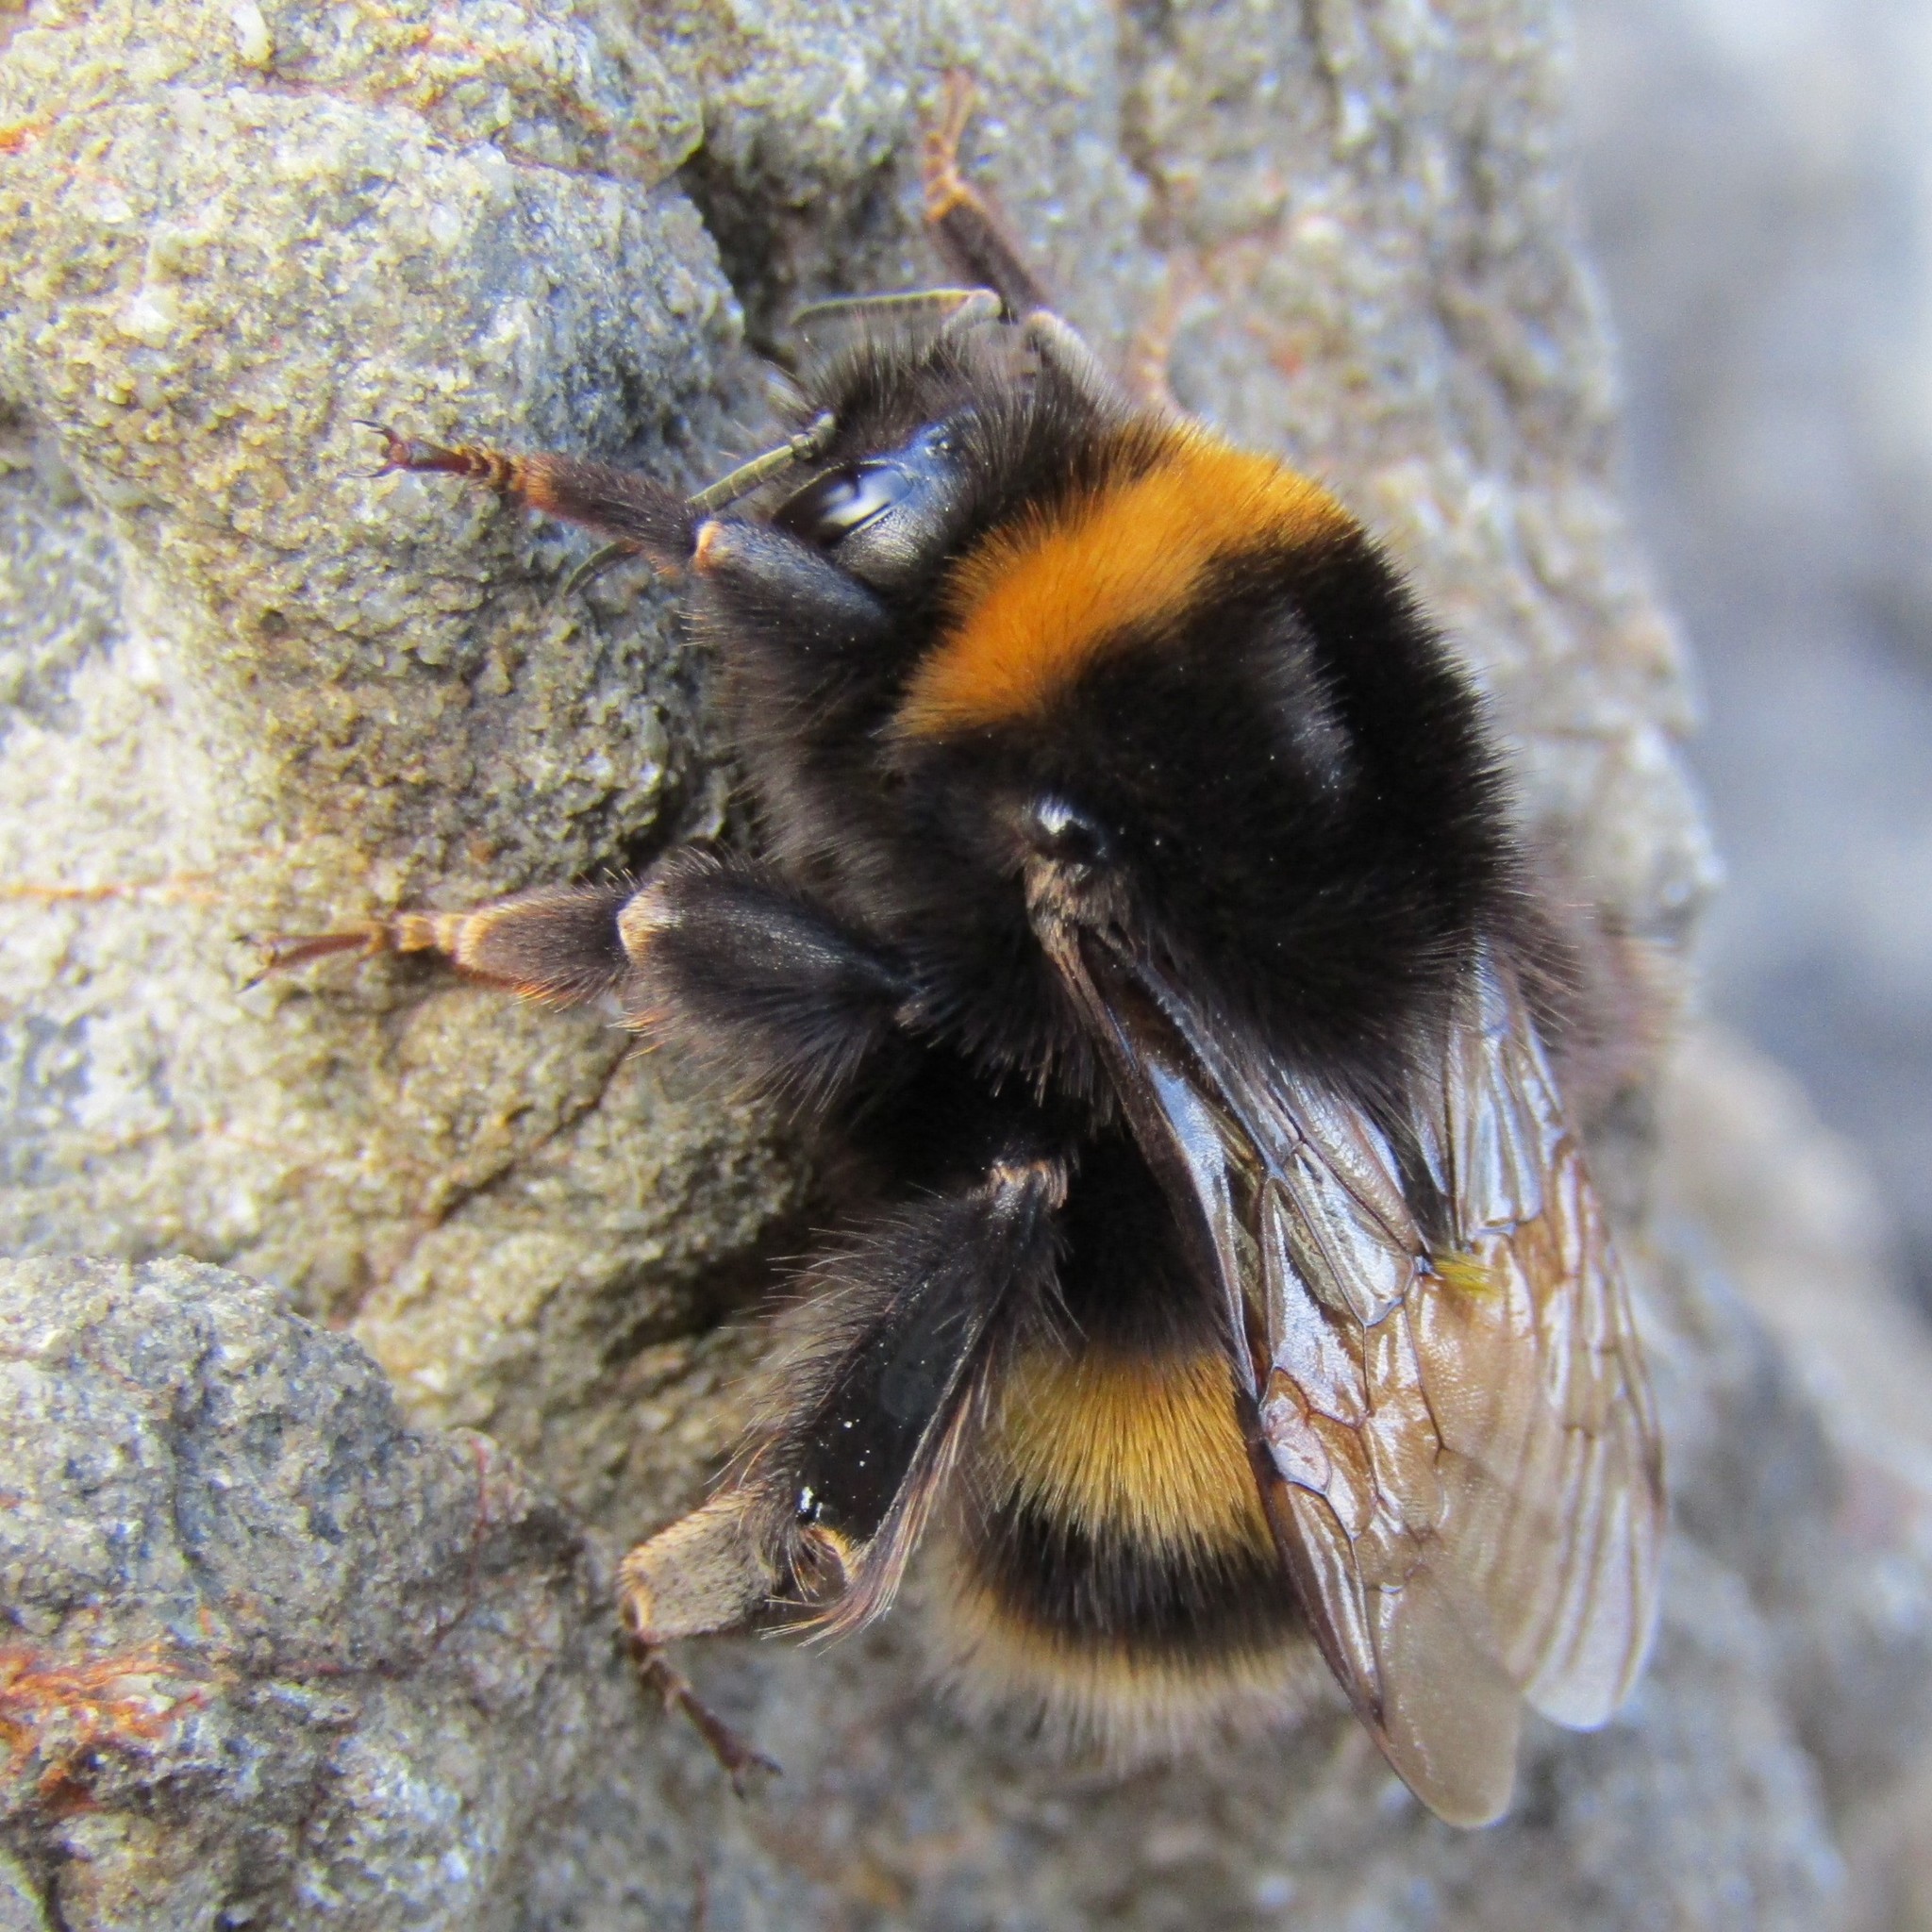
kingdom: Animalia
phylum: Arthropoda
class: Insecta
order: Hymenoptera
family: Apidae
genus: Bombus
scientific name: Bombus terrestris
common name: Buff-tailed bumblebee
